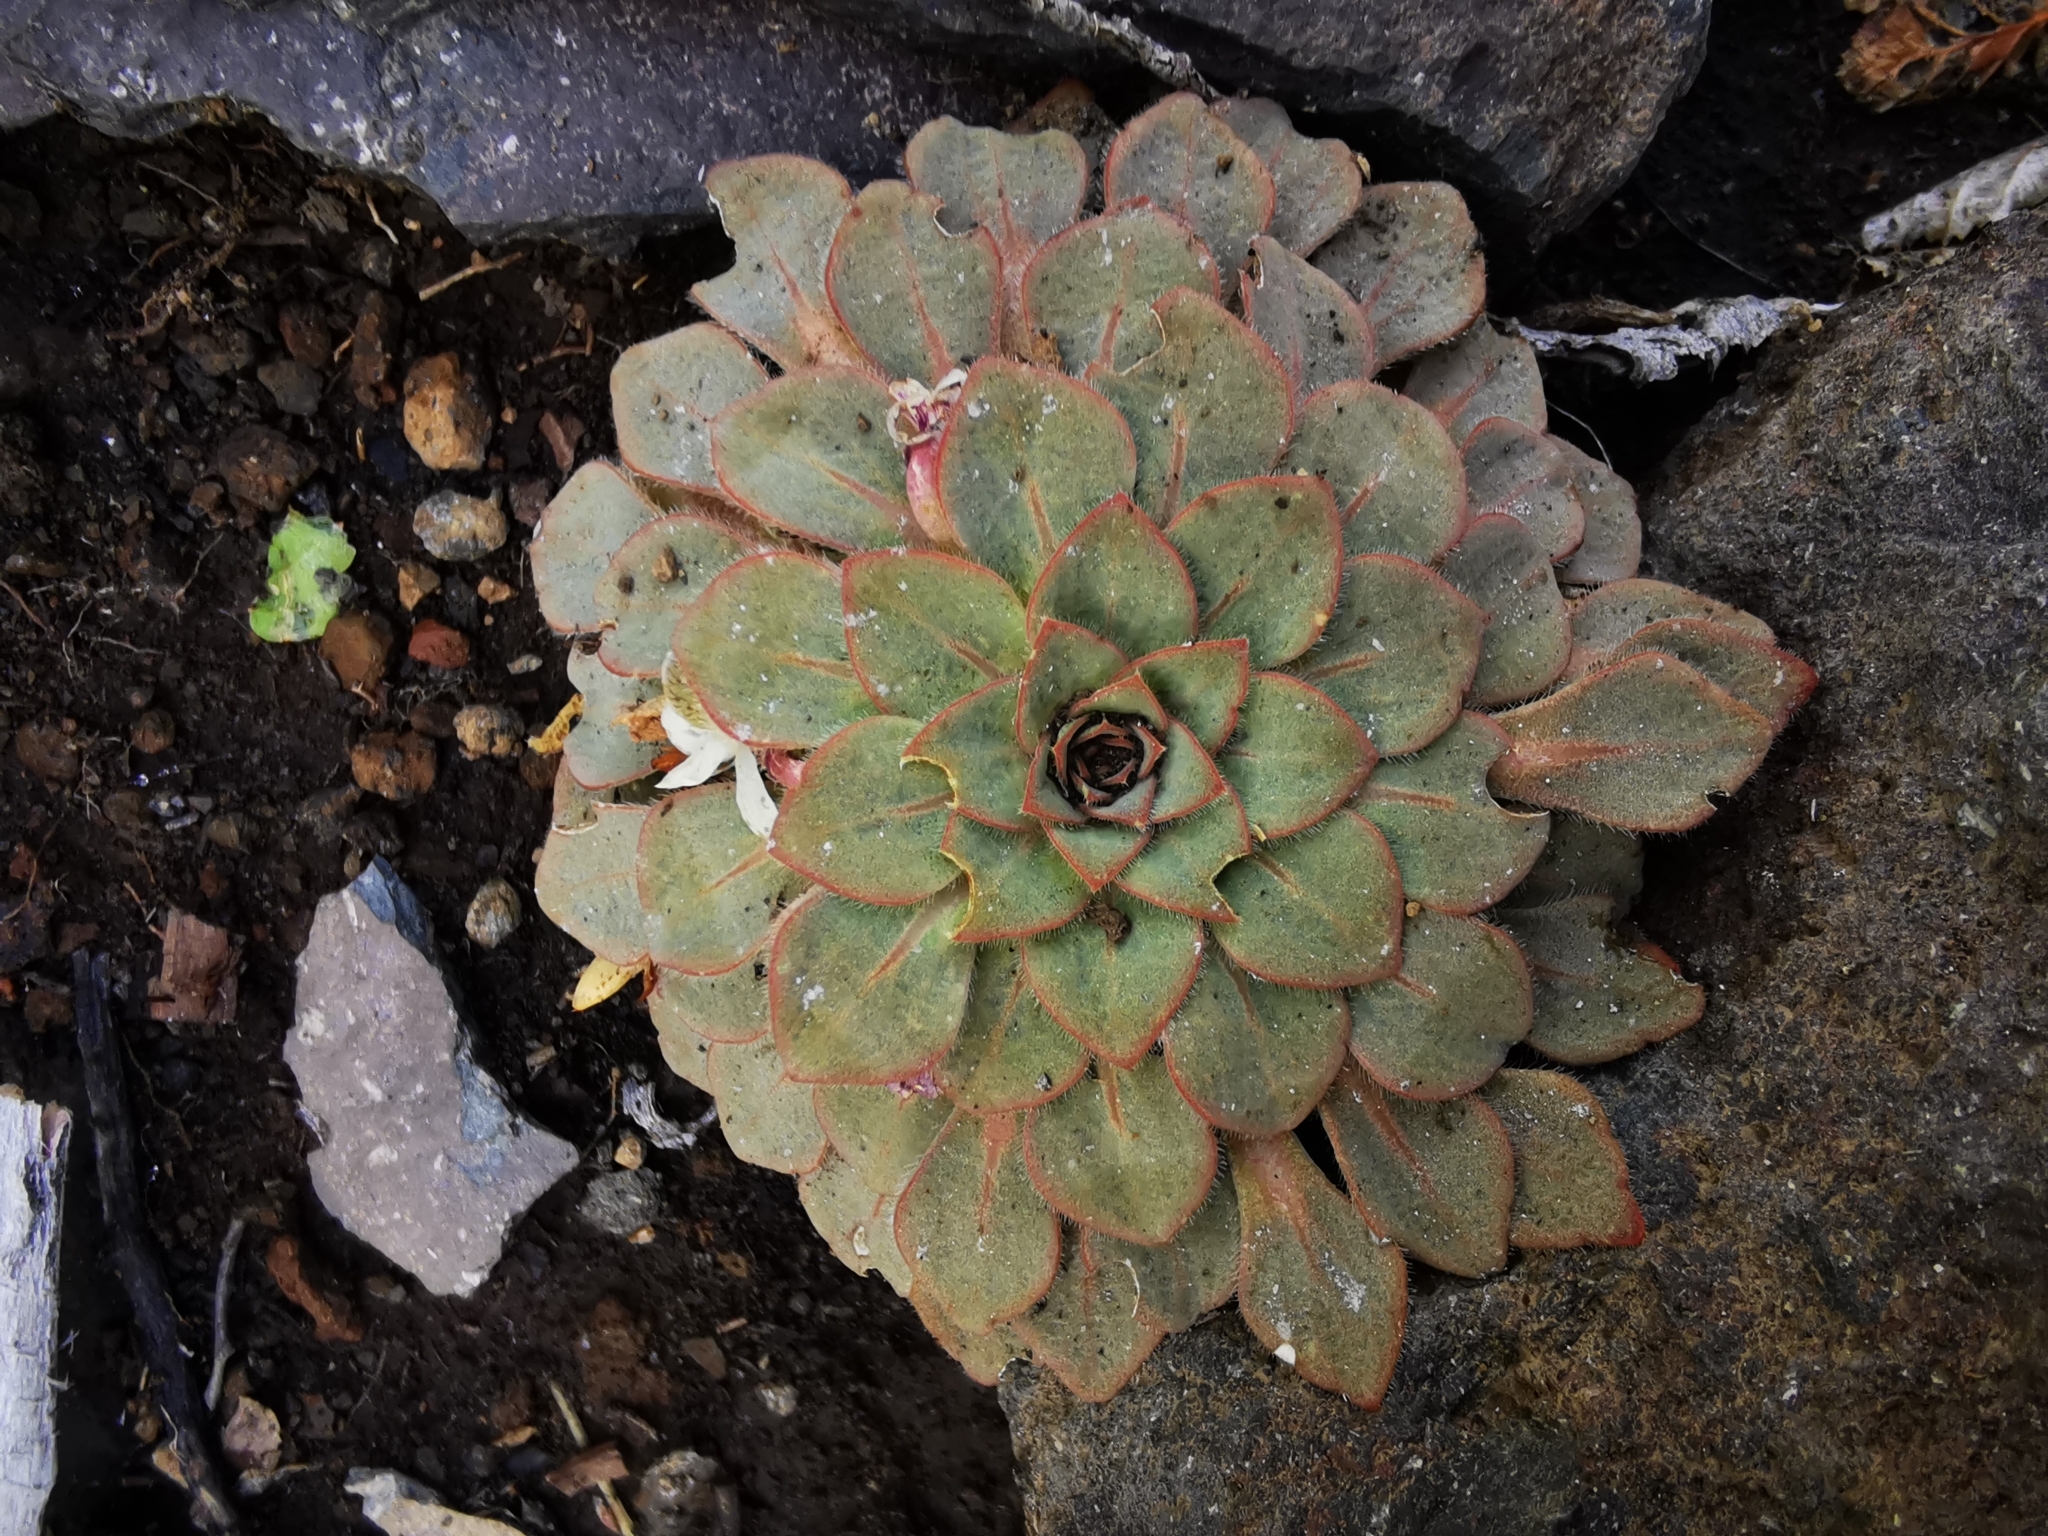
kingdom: Plantae
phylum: Tracheophyta
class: Magnoliopsida
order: Malpighiales
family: Violaceae
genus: Viola
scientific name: Viola rosulata
